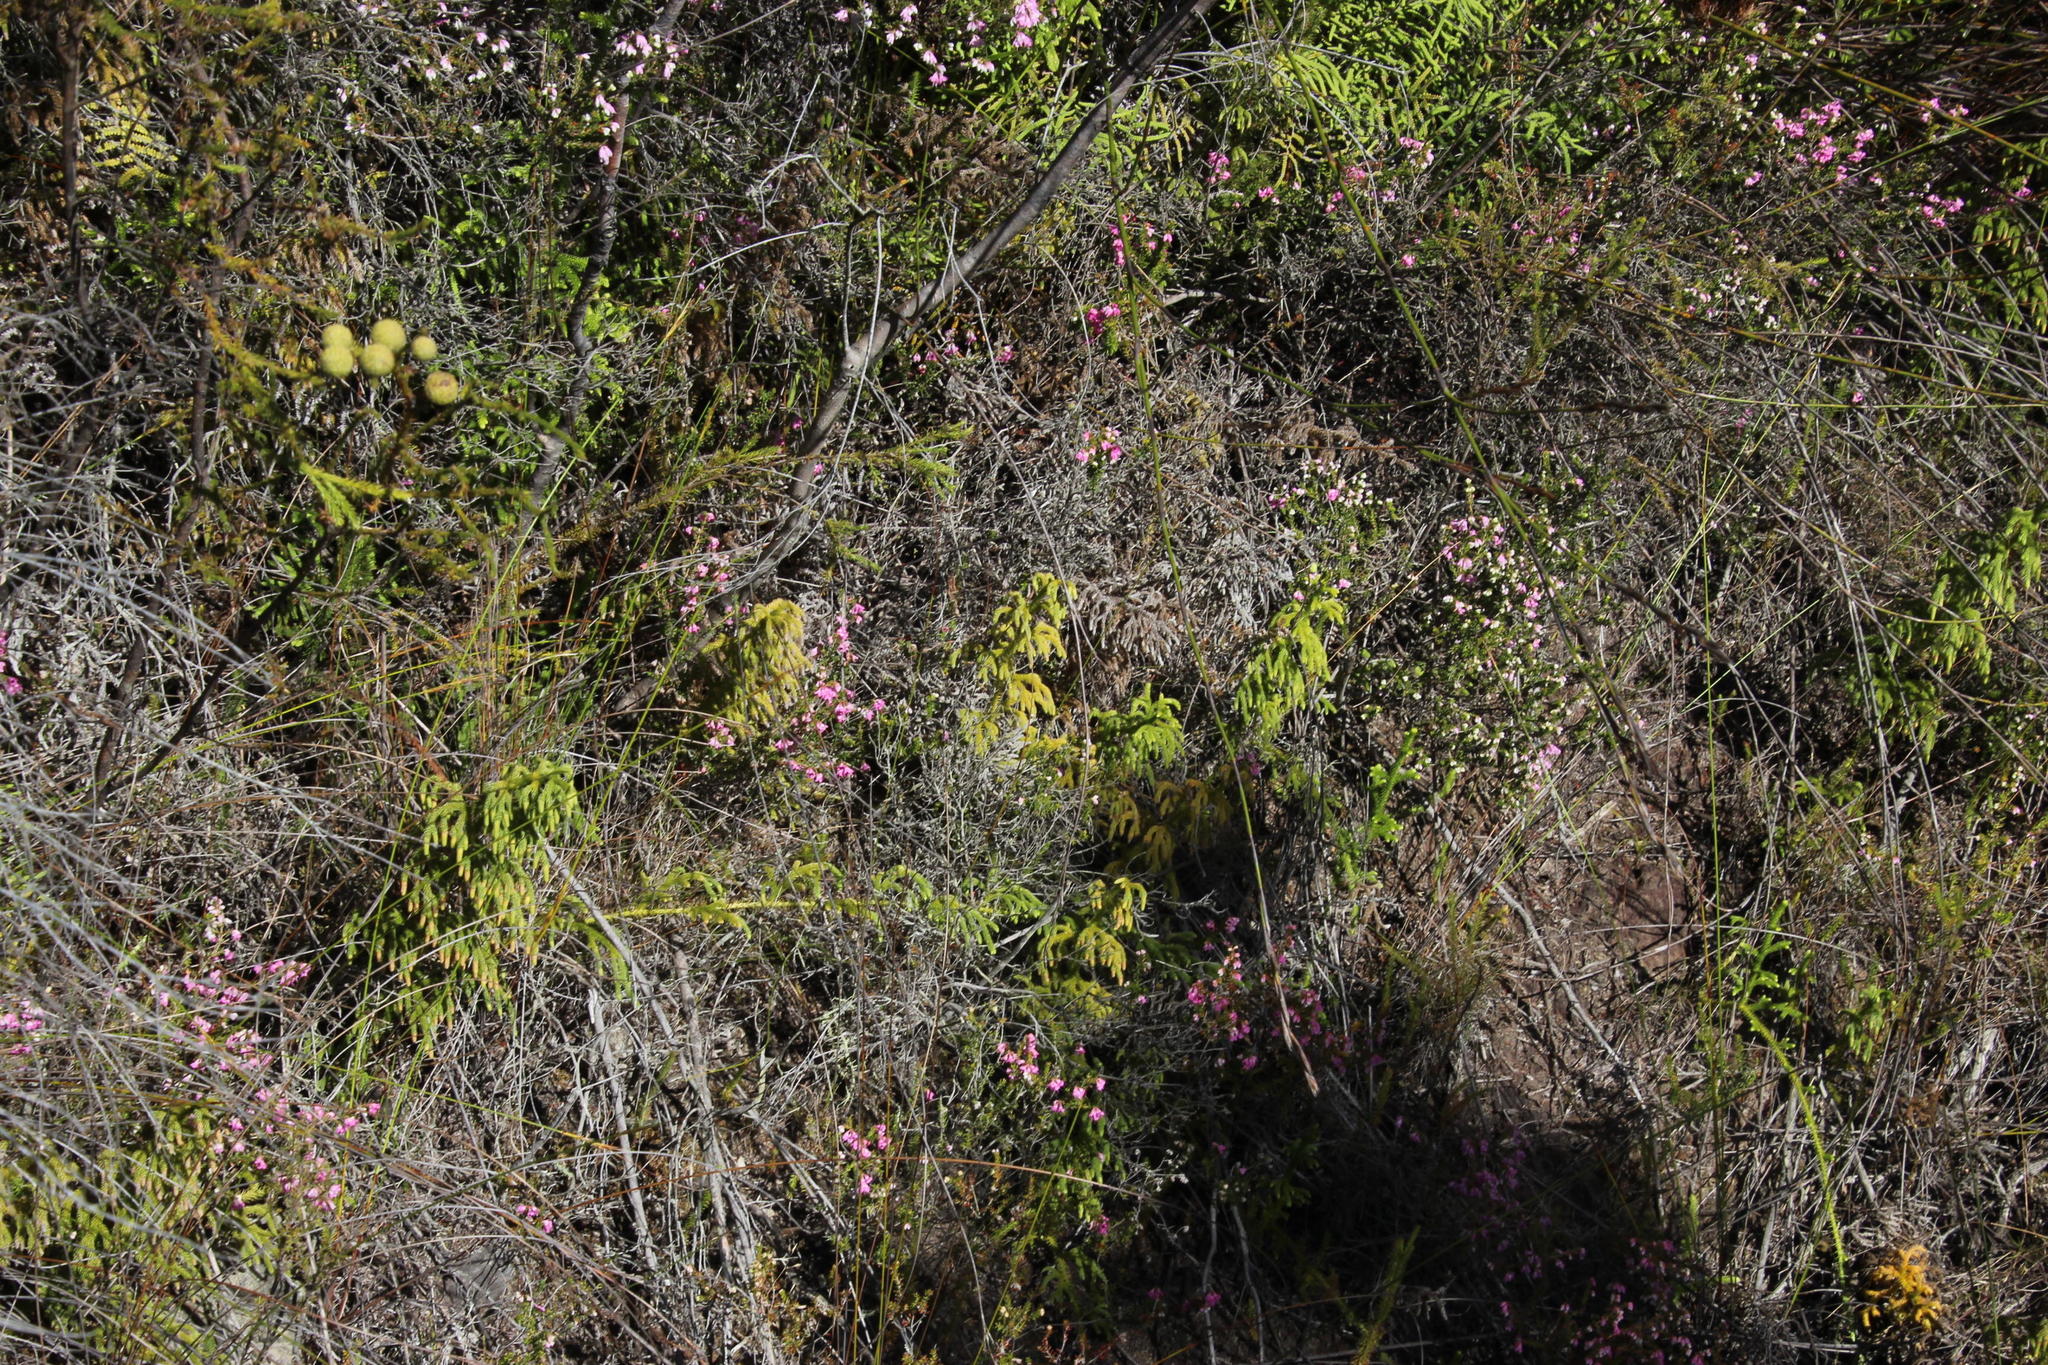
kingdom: Plantae
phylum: Tracheophyta
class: Lycopodiopsida
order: Lycopodiales
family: Lycopodiaceae
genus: Palhinhaea
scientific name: Palhinhaea cernua
